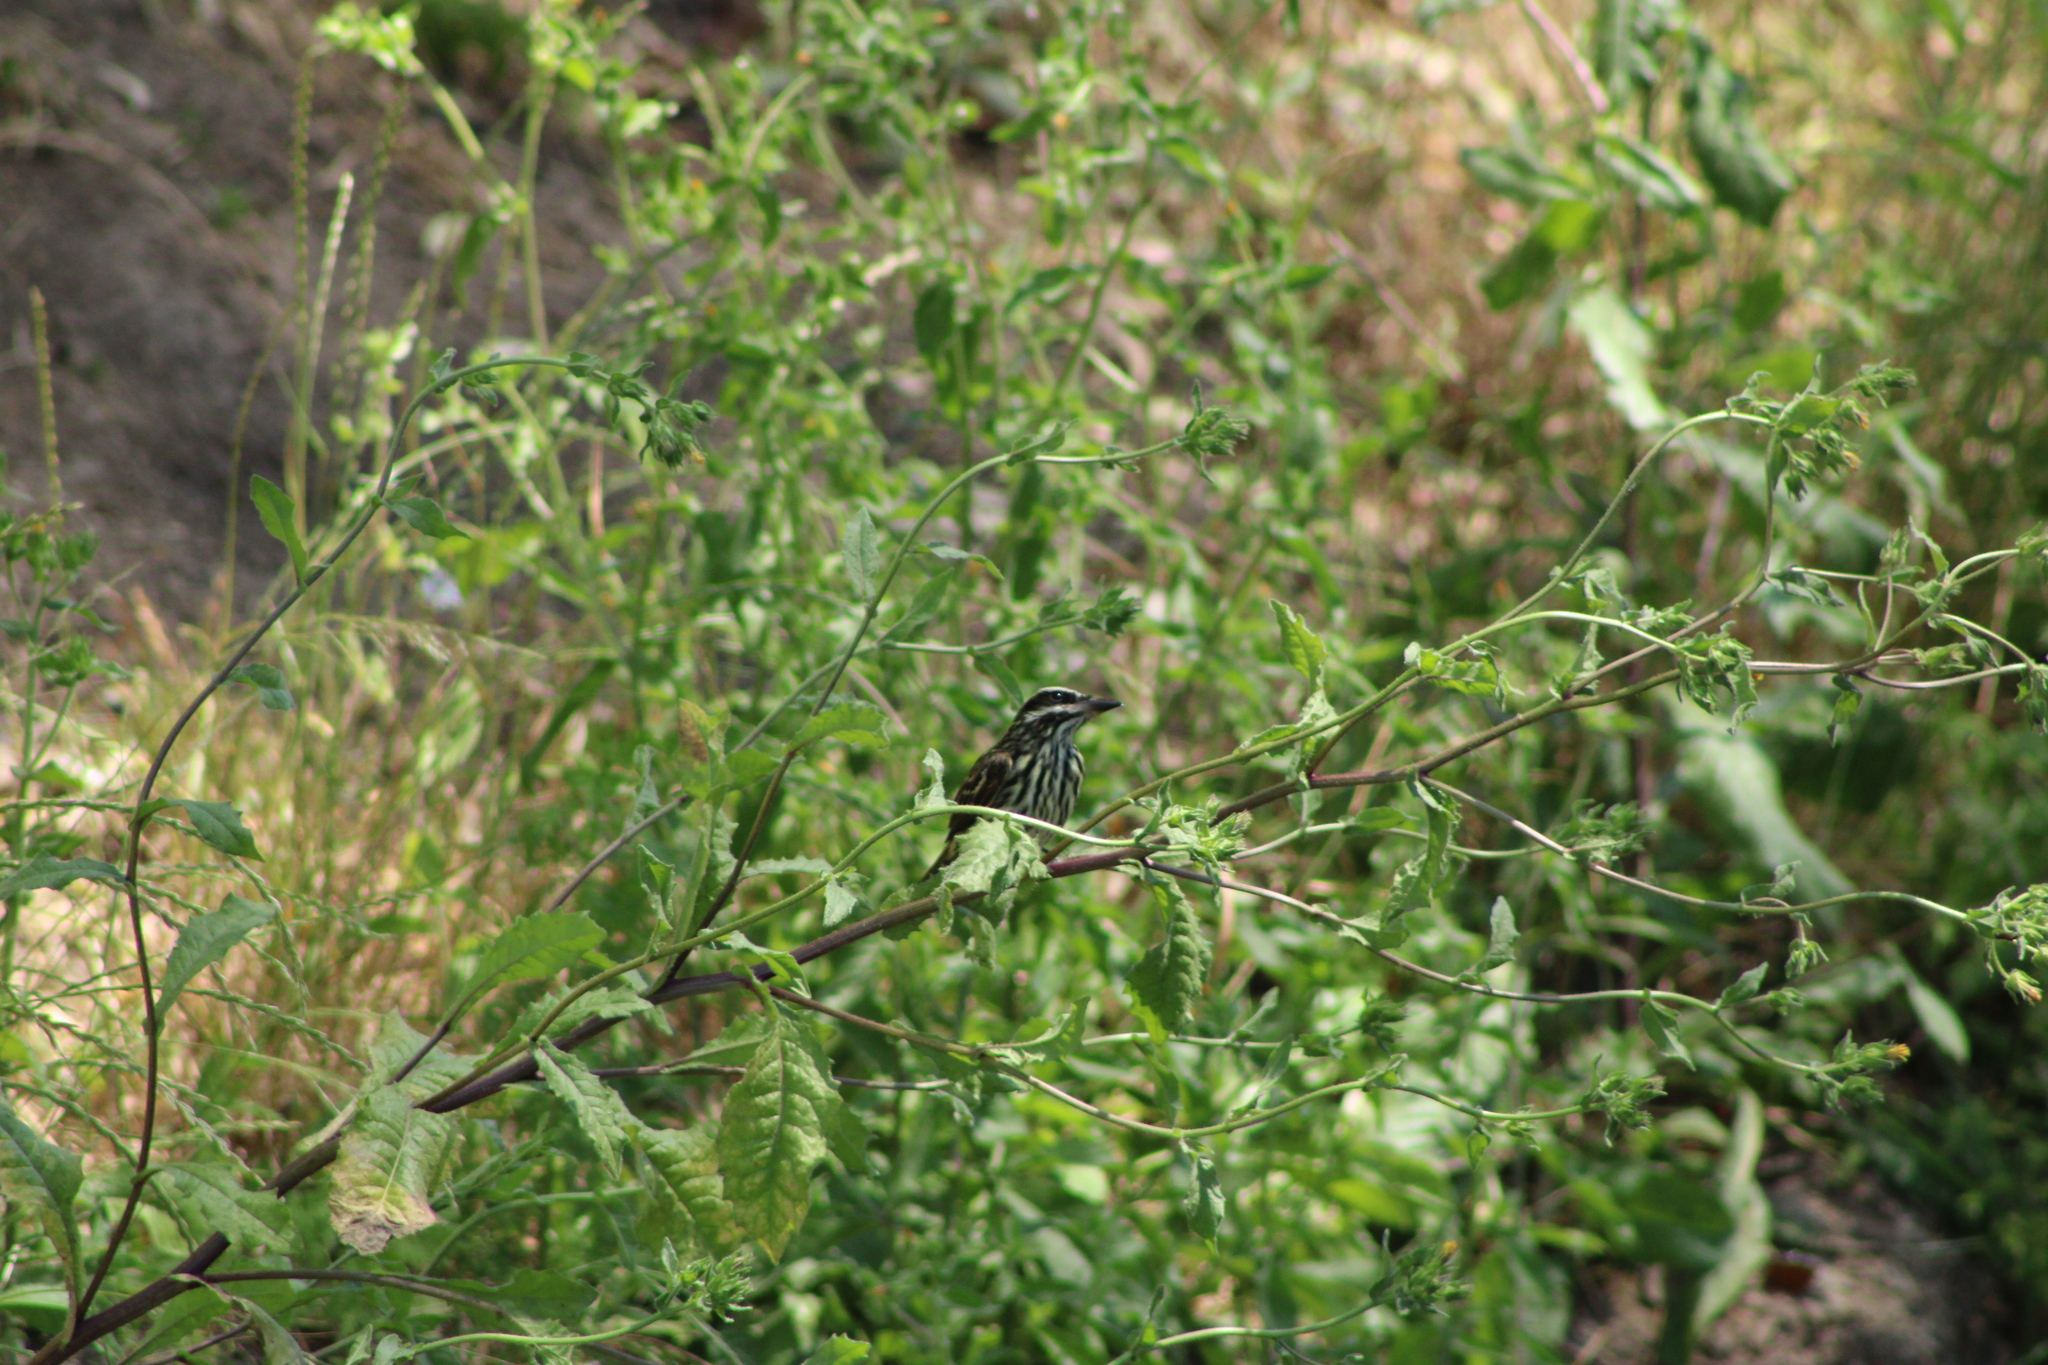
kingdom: Animalia
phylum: Chordata
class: Aves
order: Passeriformes
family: Tyrannidae
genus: Myiodynastes
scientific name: Myiodynastes maculatus
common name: Streaked flycatcher
